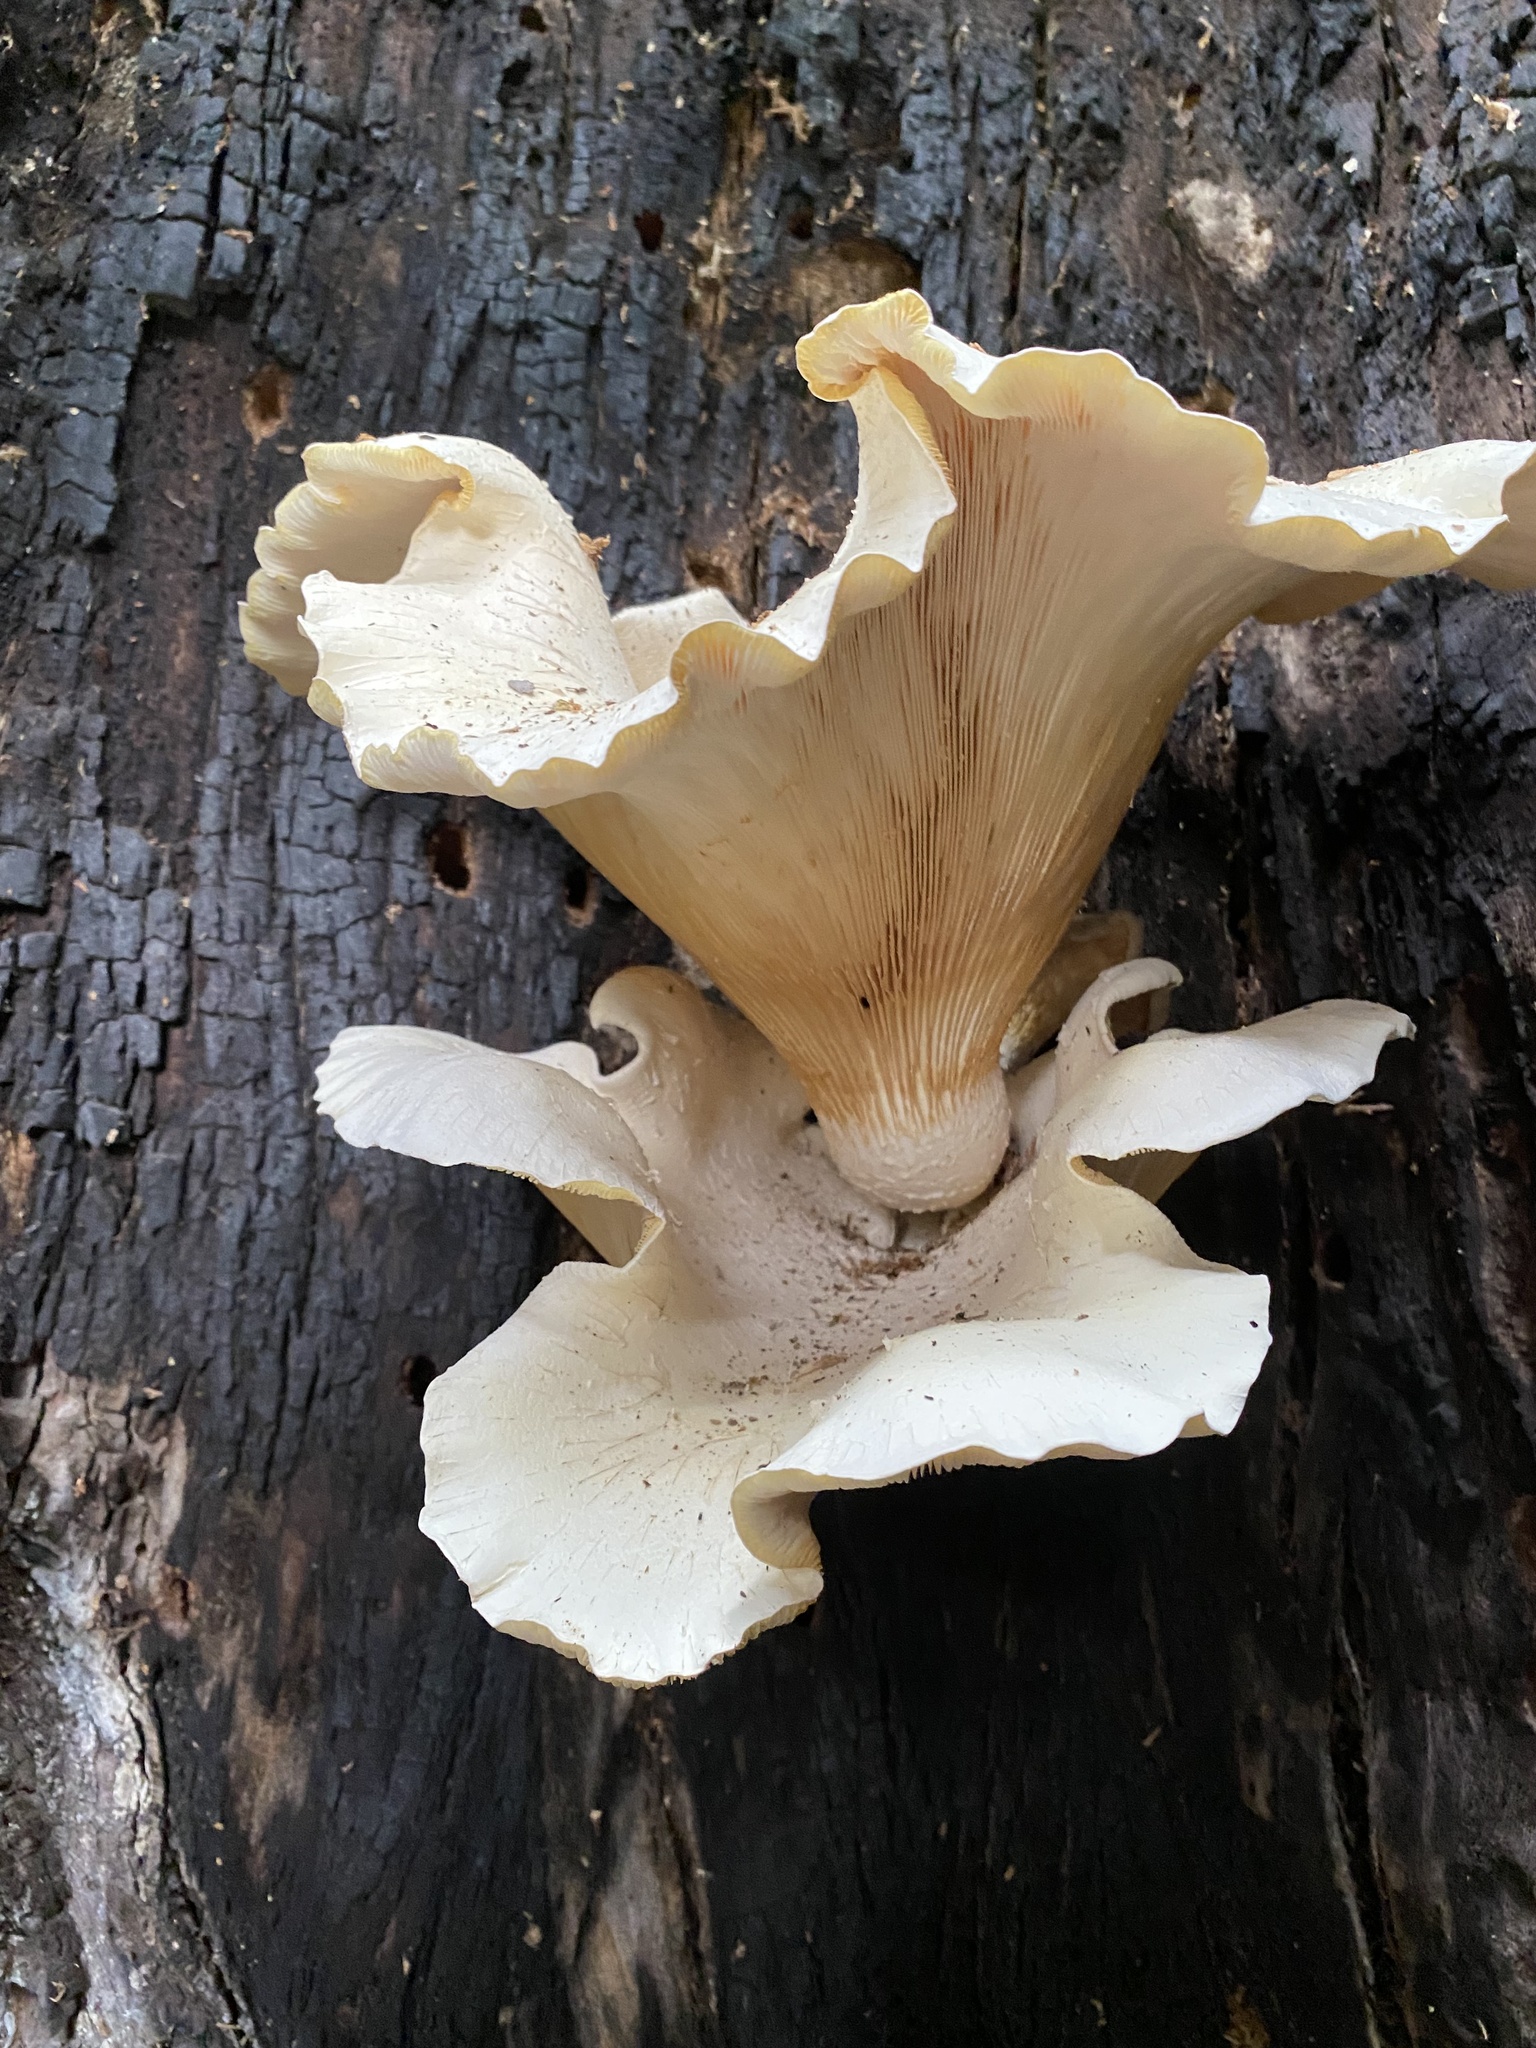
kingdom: Fungi
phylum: Basidiomycota
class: Agaricomycetes
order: Polyporales
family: Polyporaceae
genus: Lentinus
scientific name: Lentinus levis
